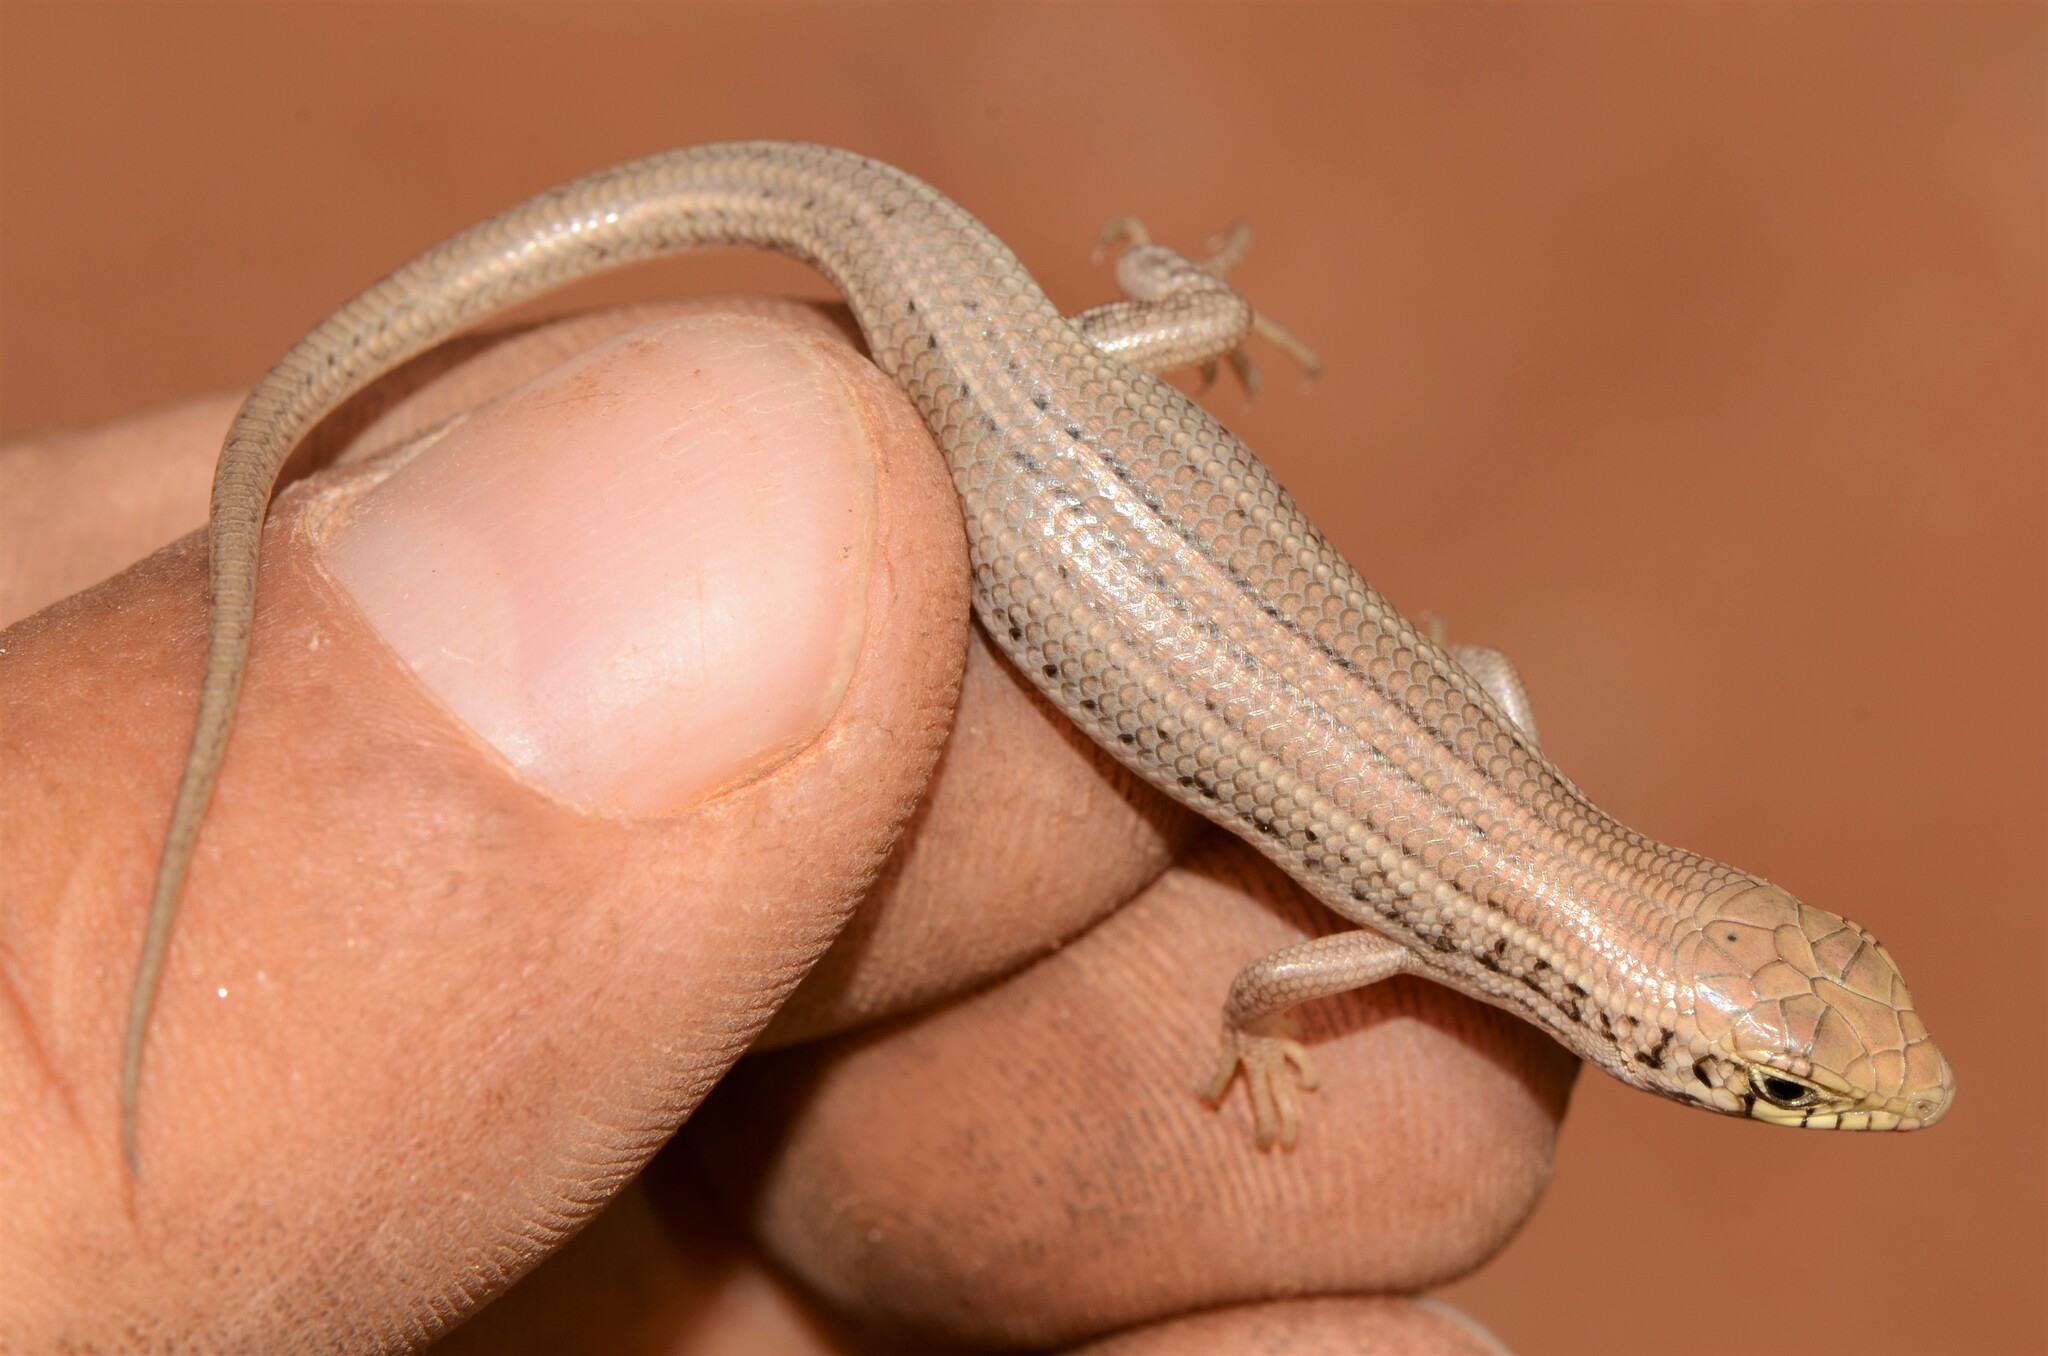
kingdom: Animalia
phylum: Chordata
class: Squamata
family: Scincidae
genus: Trachylepis
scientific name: Trachylepis occidentalis
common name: Western three-striped skink
